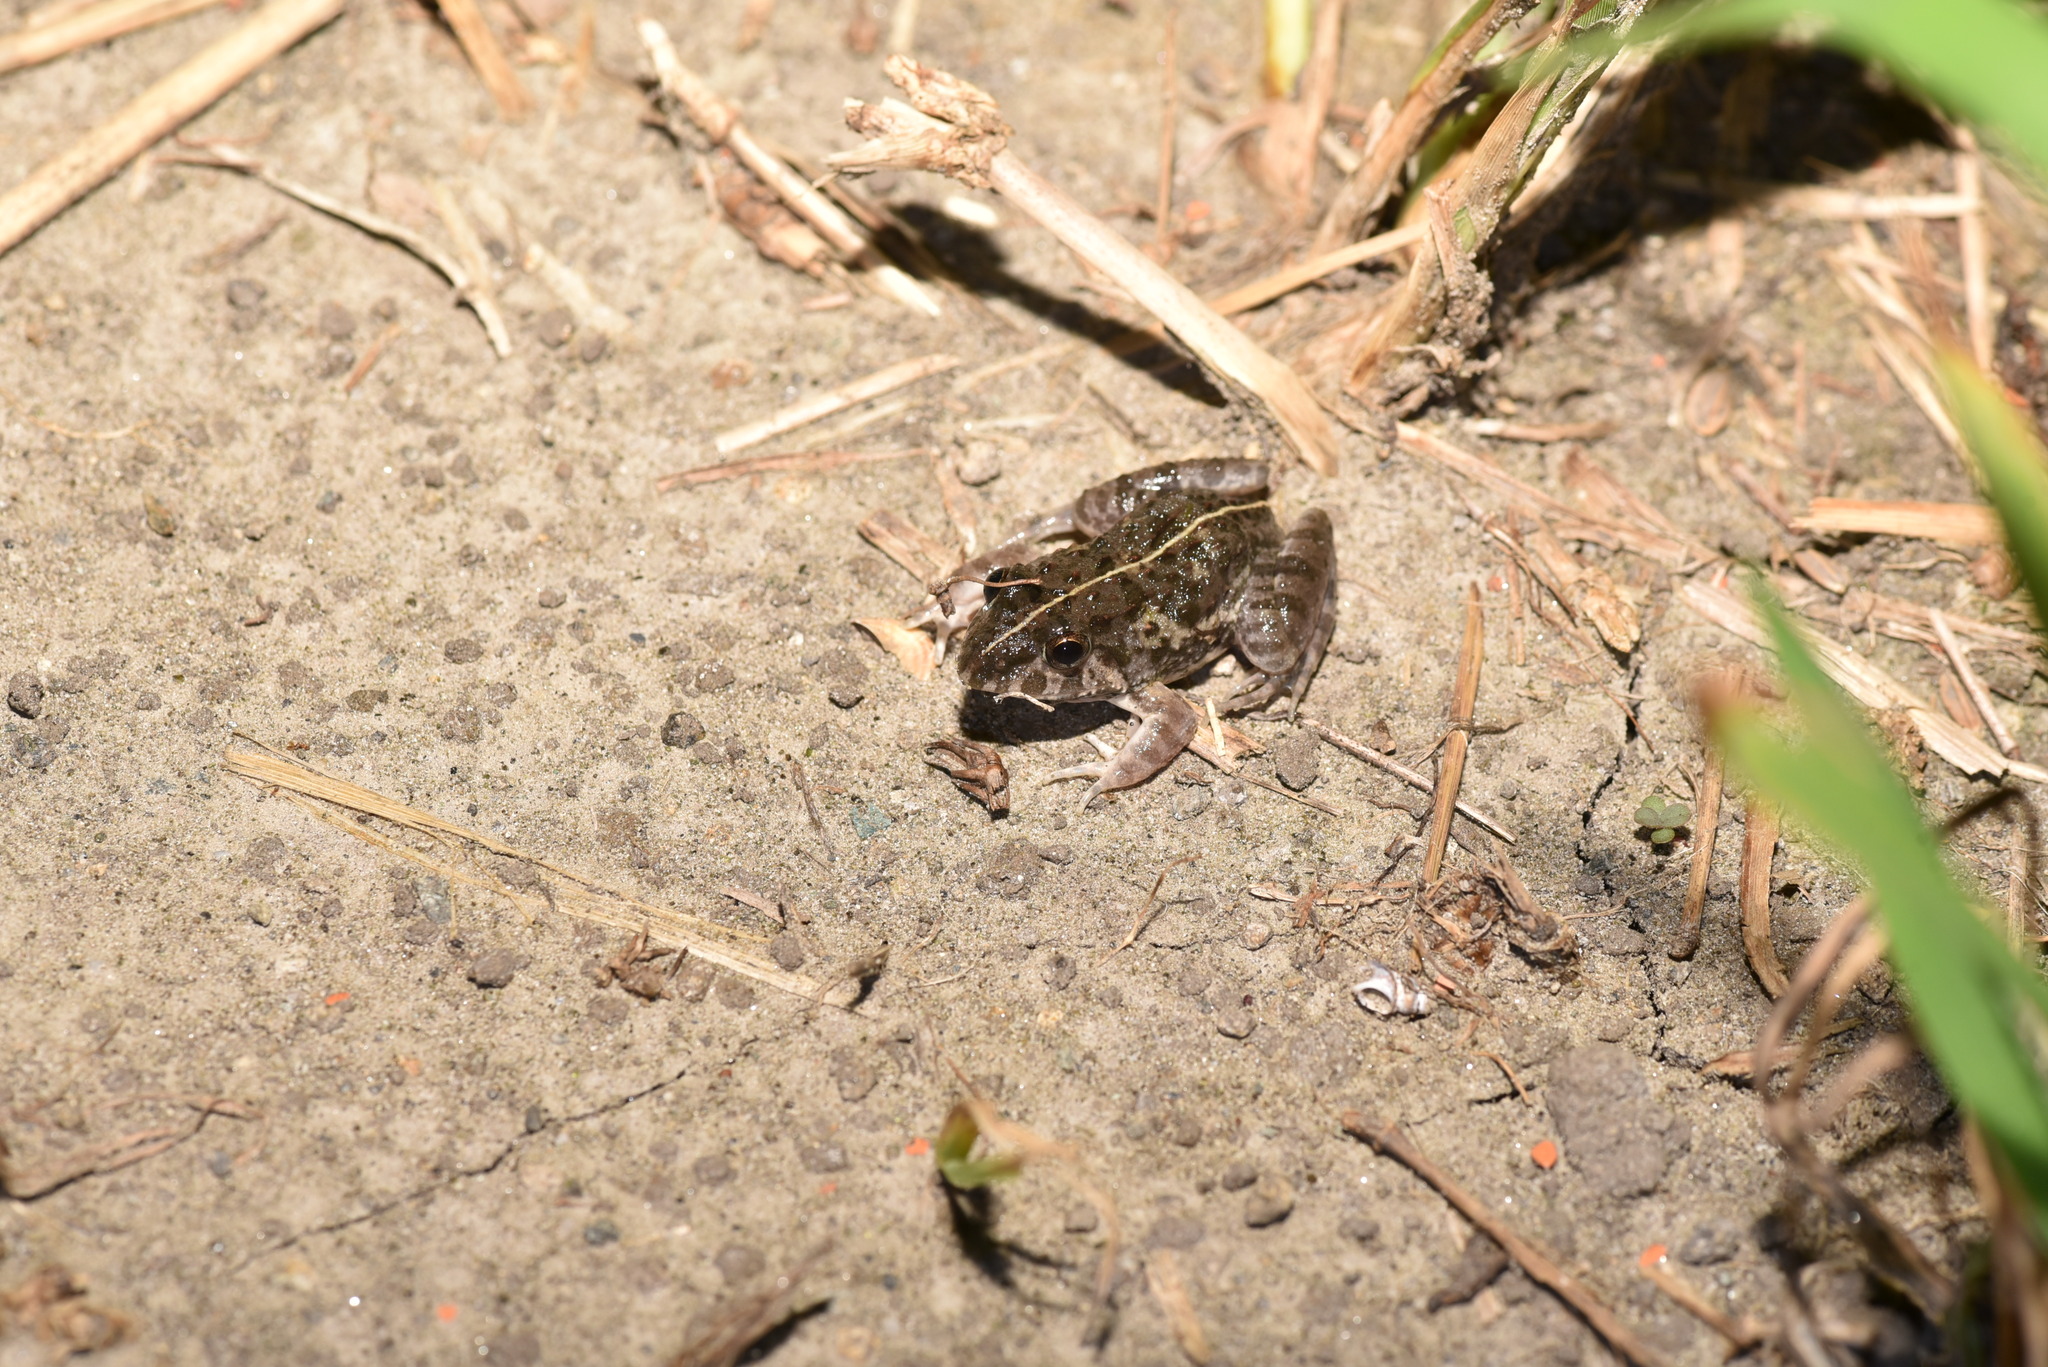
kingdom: Animalia
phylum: Chordata
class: Amphibia
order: Anura
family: Dicroglossidae
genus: Fejervarya
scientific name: Fejervarya limnocharis
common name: Asian grass frog/common pond frog/field frog/grass frog/indian rice frog
